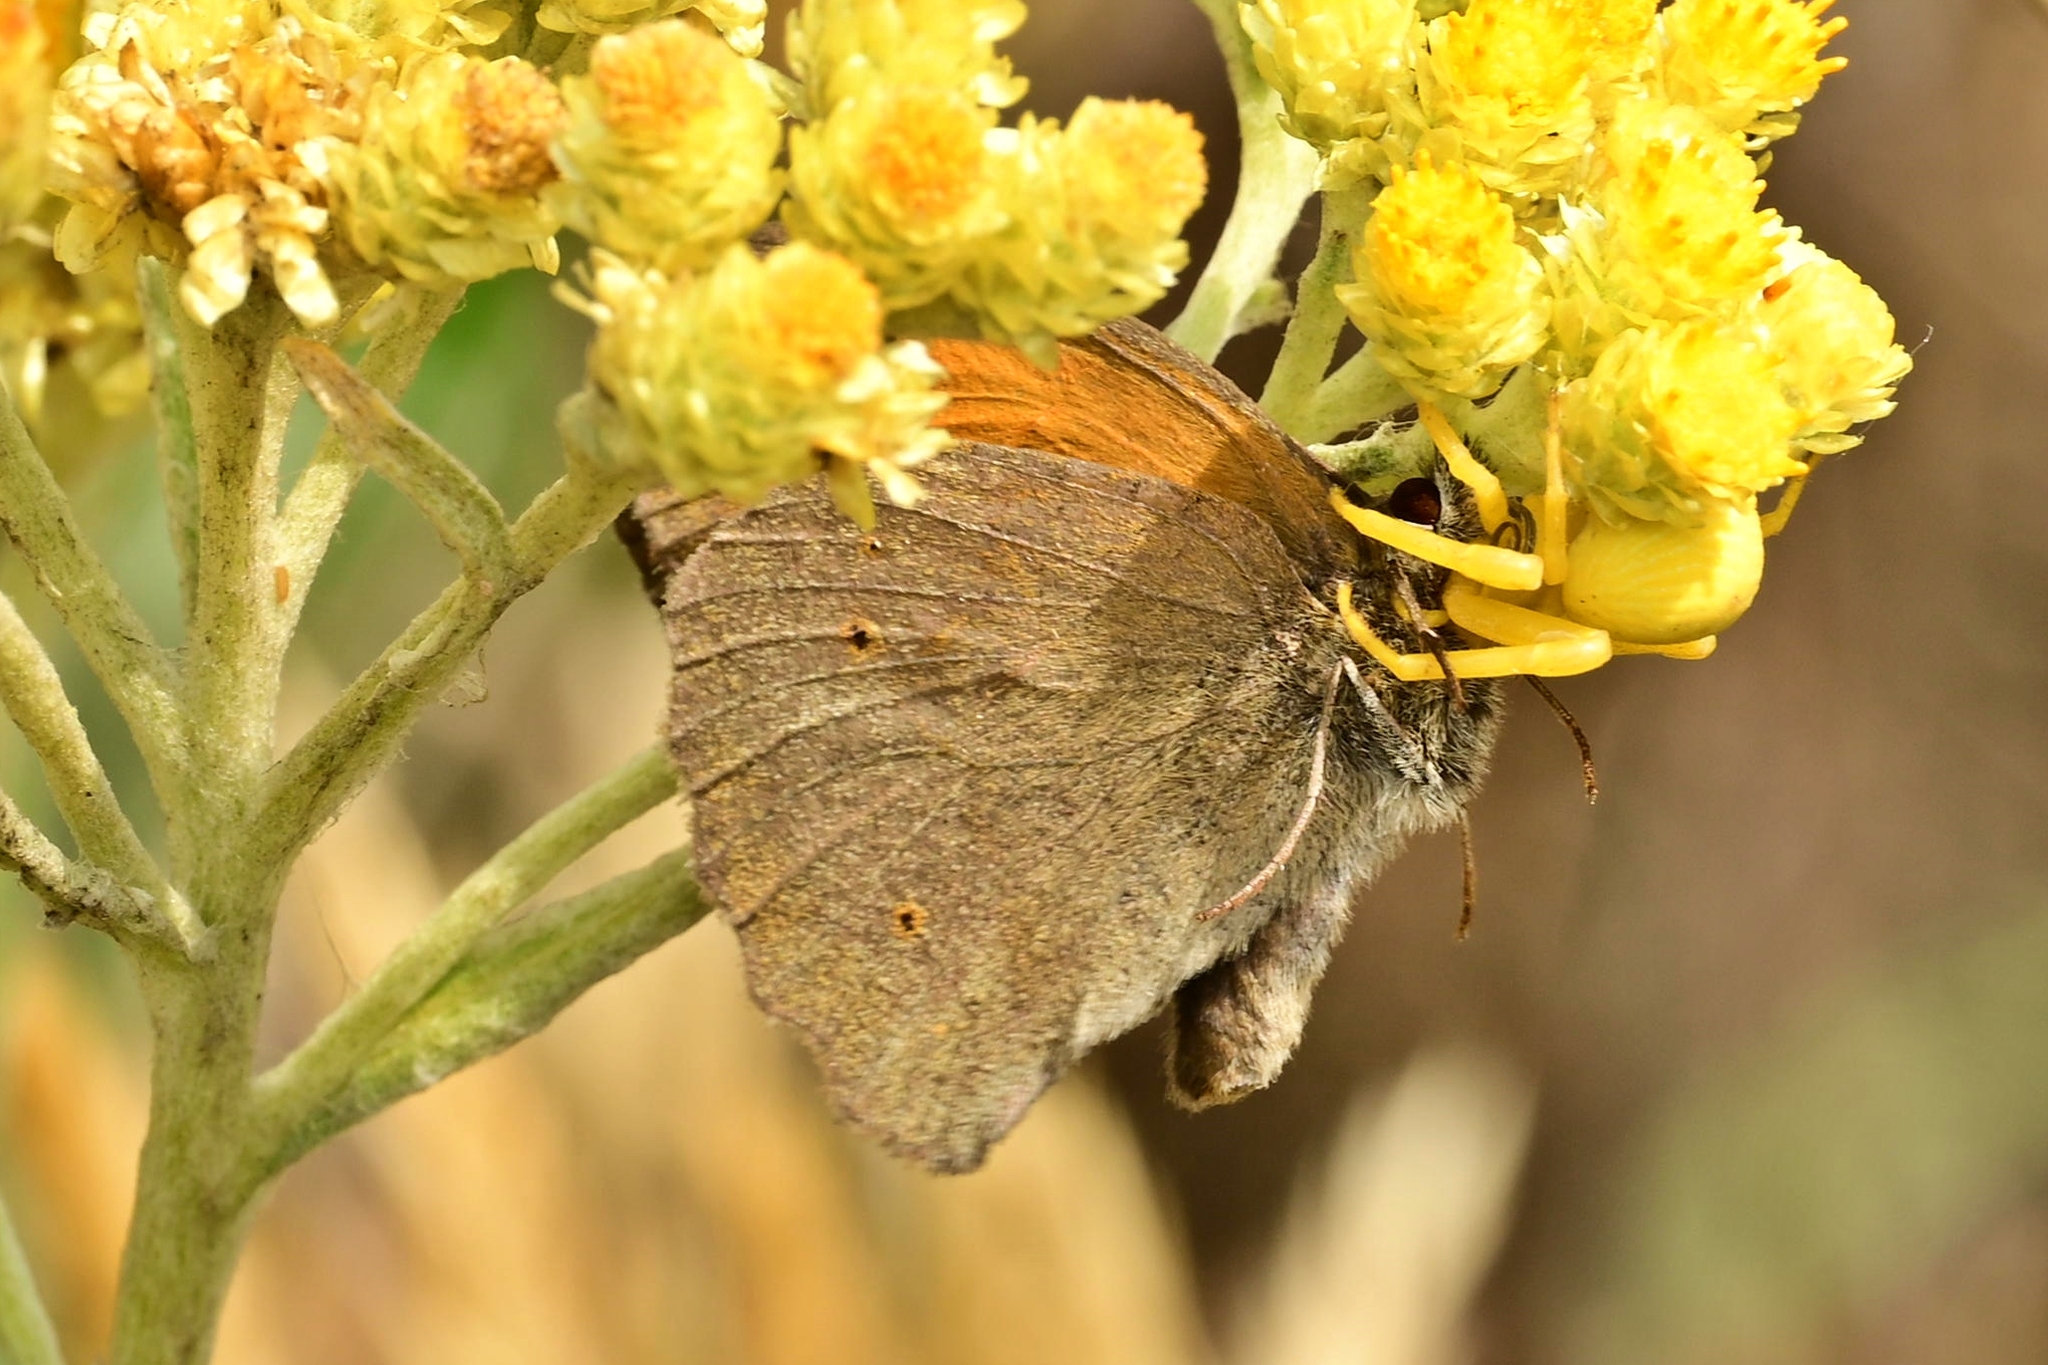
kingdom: Animalia
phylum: Arthropoda
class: Arachnida
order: Araneae
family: Thomisidae
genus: Misumena
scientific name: Misumena vatia
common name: Goldenrod crab spider
